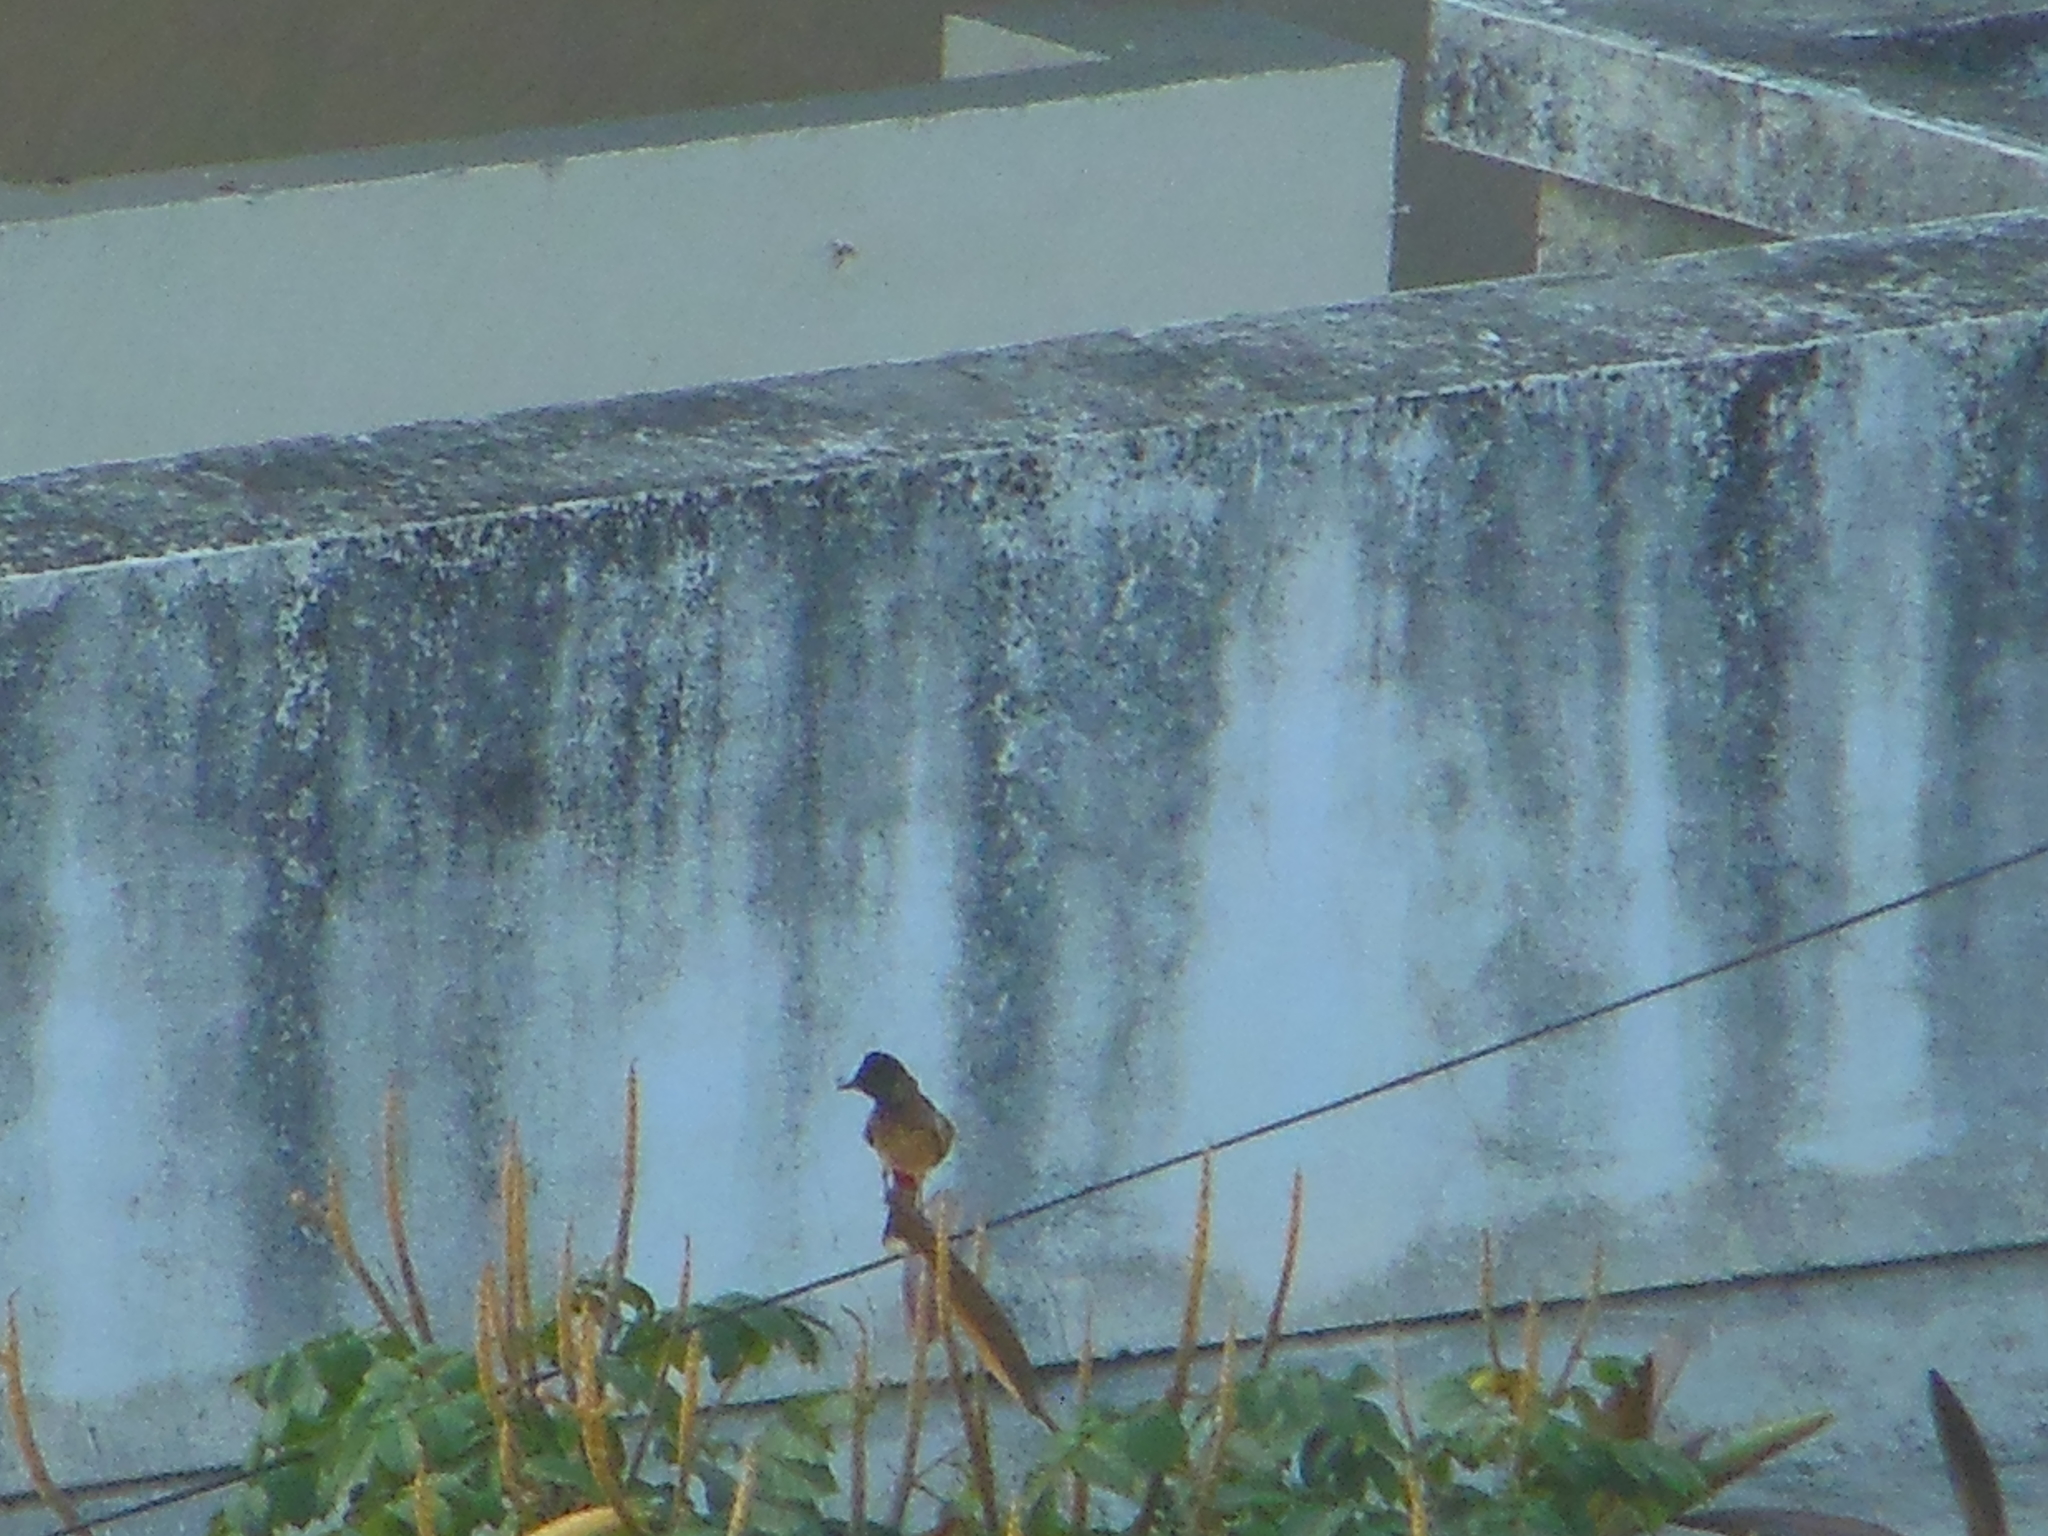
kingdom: Animalia
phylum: Chordata
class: Aves
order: Passeriformes
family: Pycnonotidae
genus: Pycnonotus
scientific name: Pycnonotus cafer
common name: Red-vented bulbul
